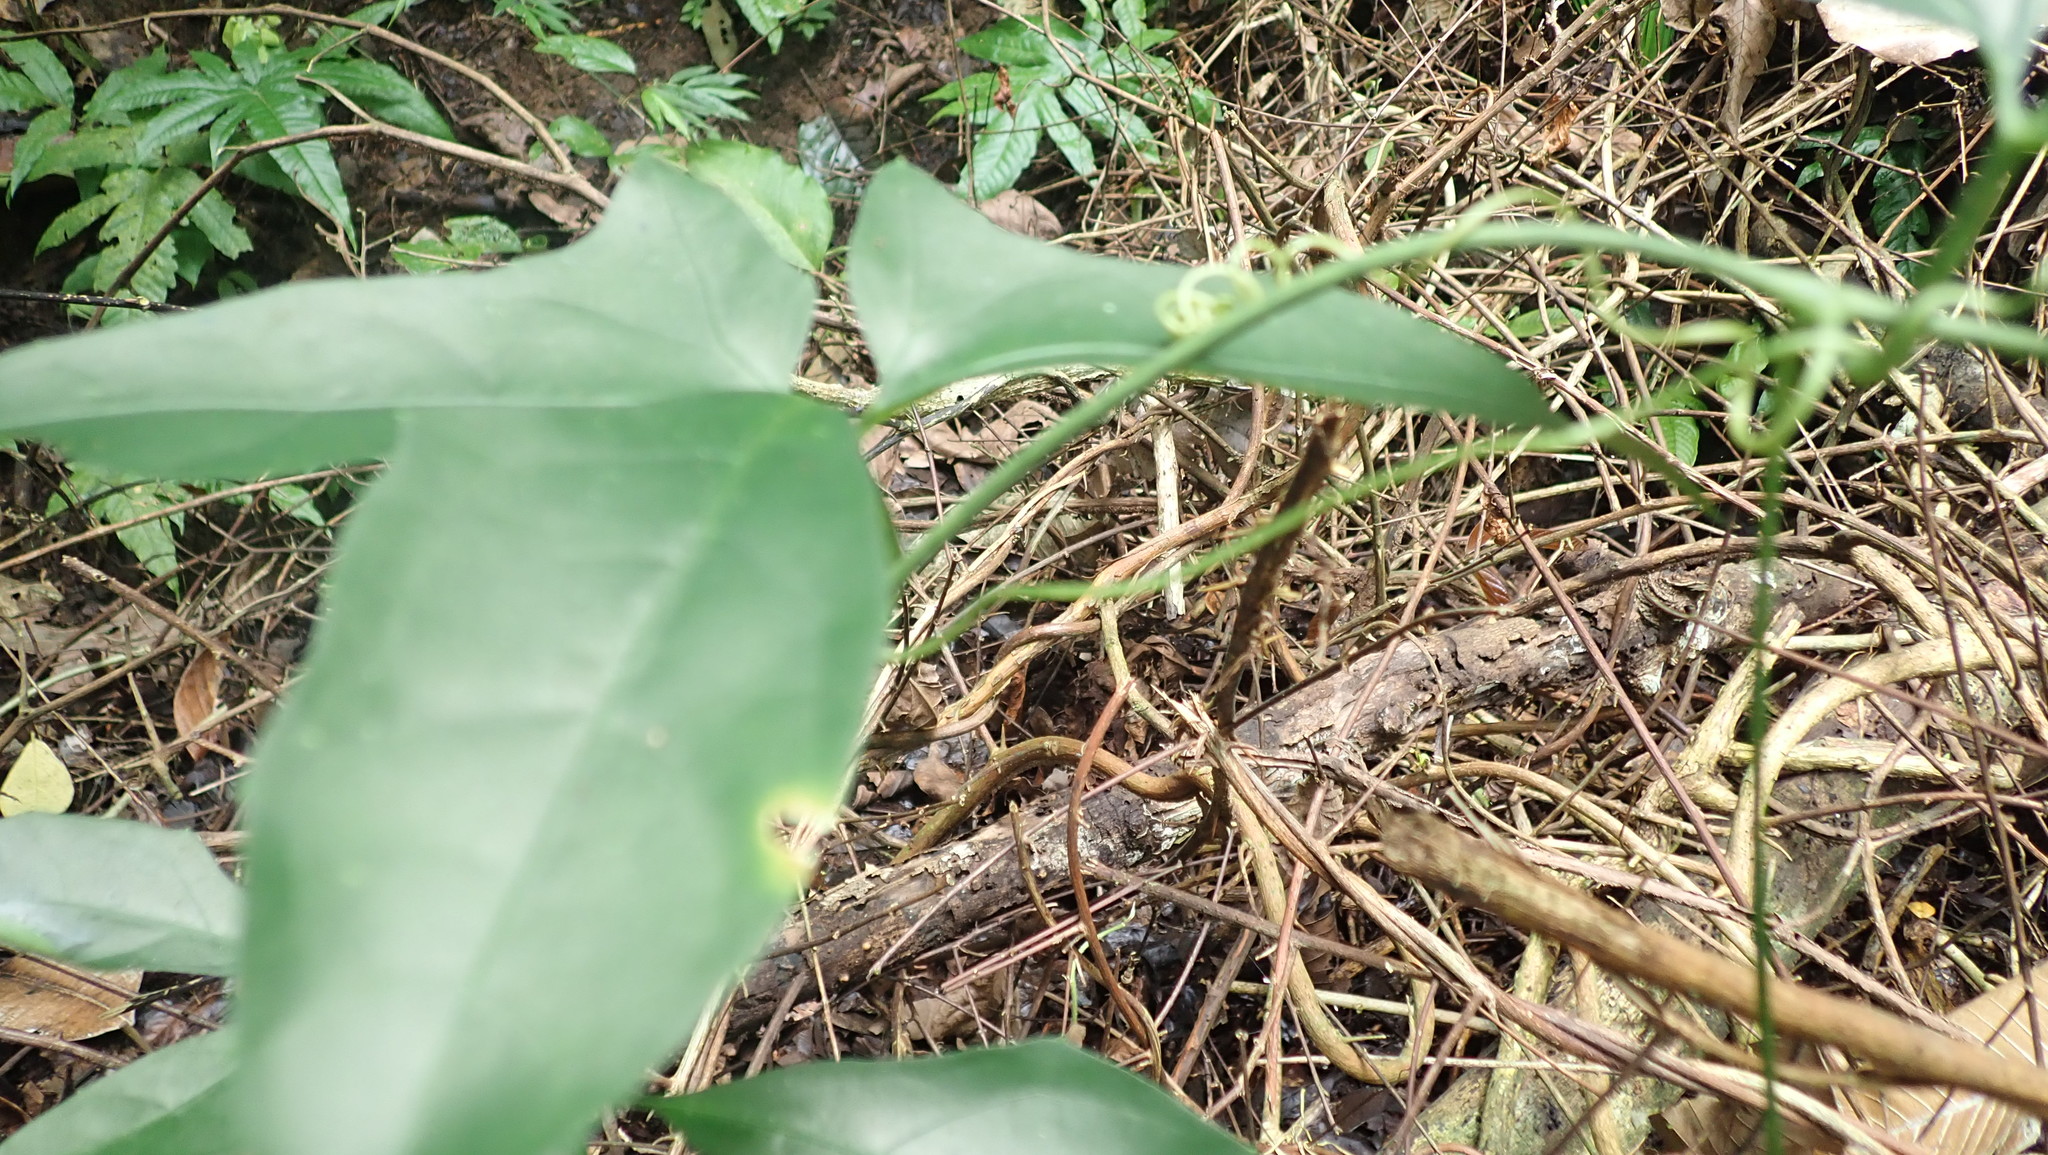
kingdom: Plantae
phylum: Tracheophyta
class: Magnoliopsida
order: Cucurbitales
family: Cucurbitaceae
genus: Psiguria
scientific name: Psiguria warscewiczii
